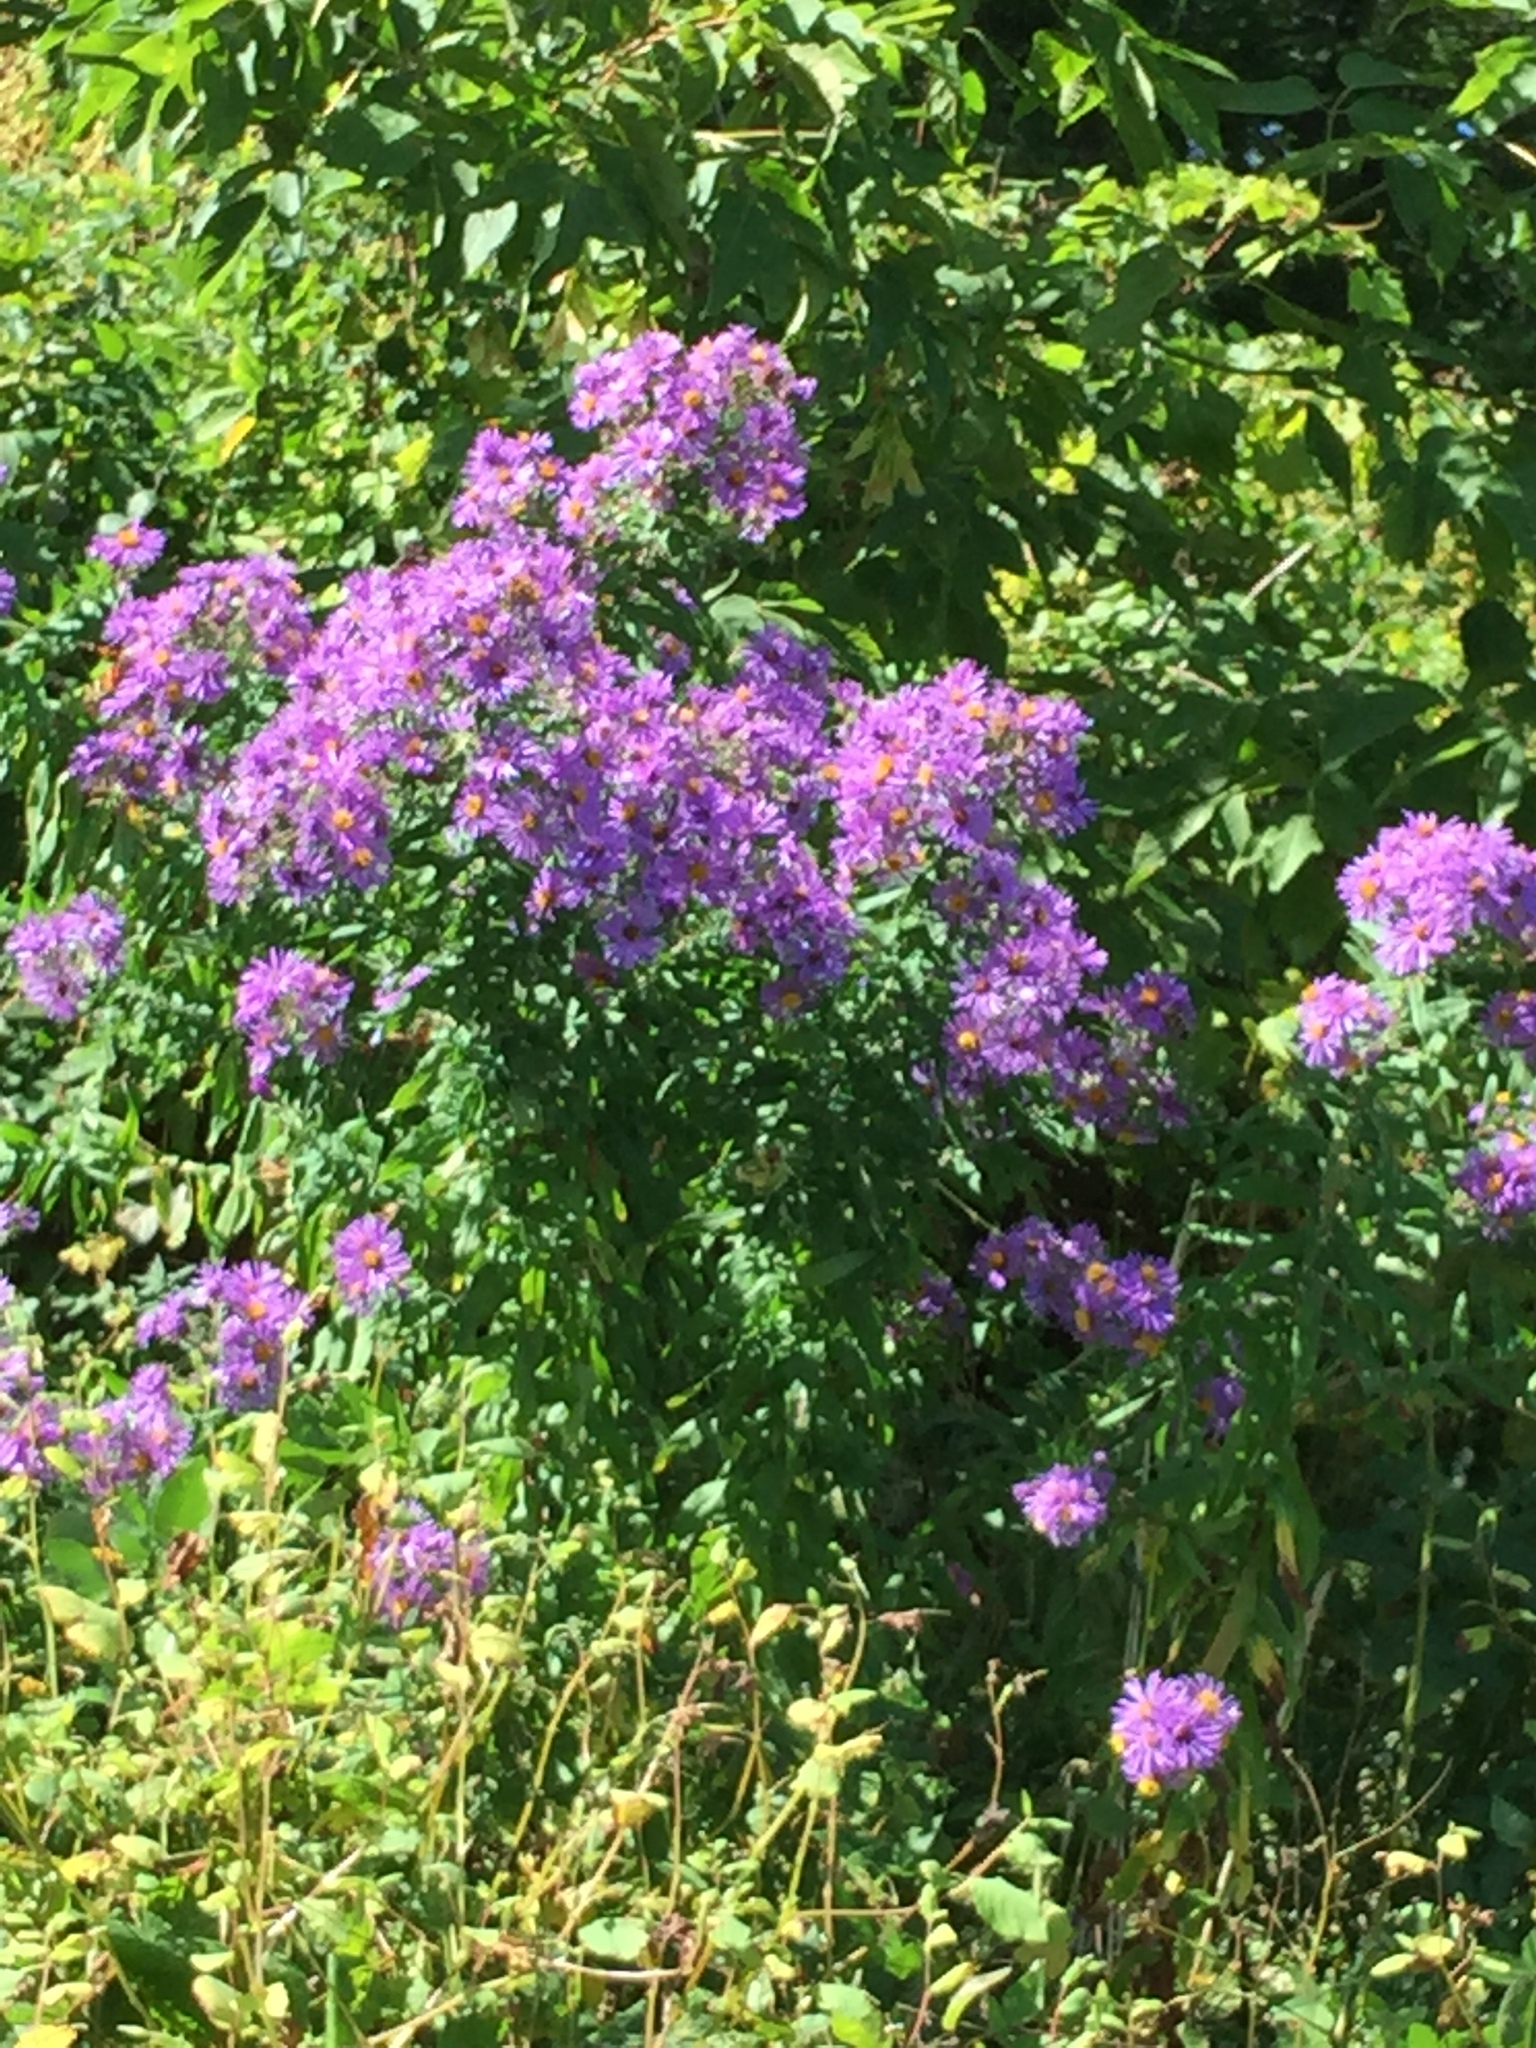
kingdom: Plantae
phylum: Tracheophyta
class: Magnoliopsida
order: Asterales
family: Asteraceae
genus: Symphyotrichum
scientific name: Symphyotrichum novae-angliae
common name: Michaelmas daisy
